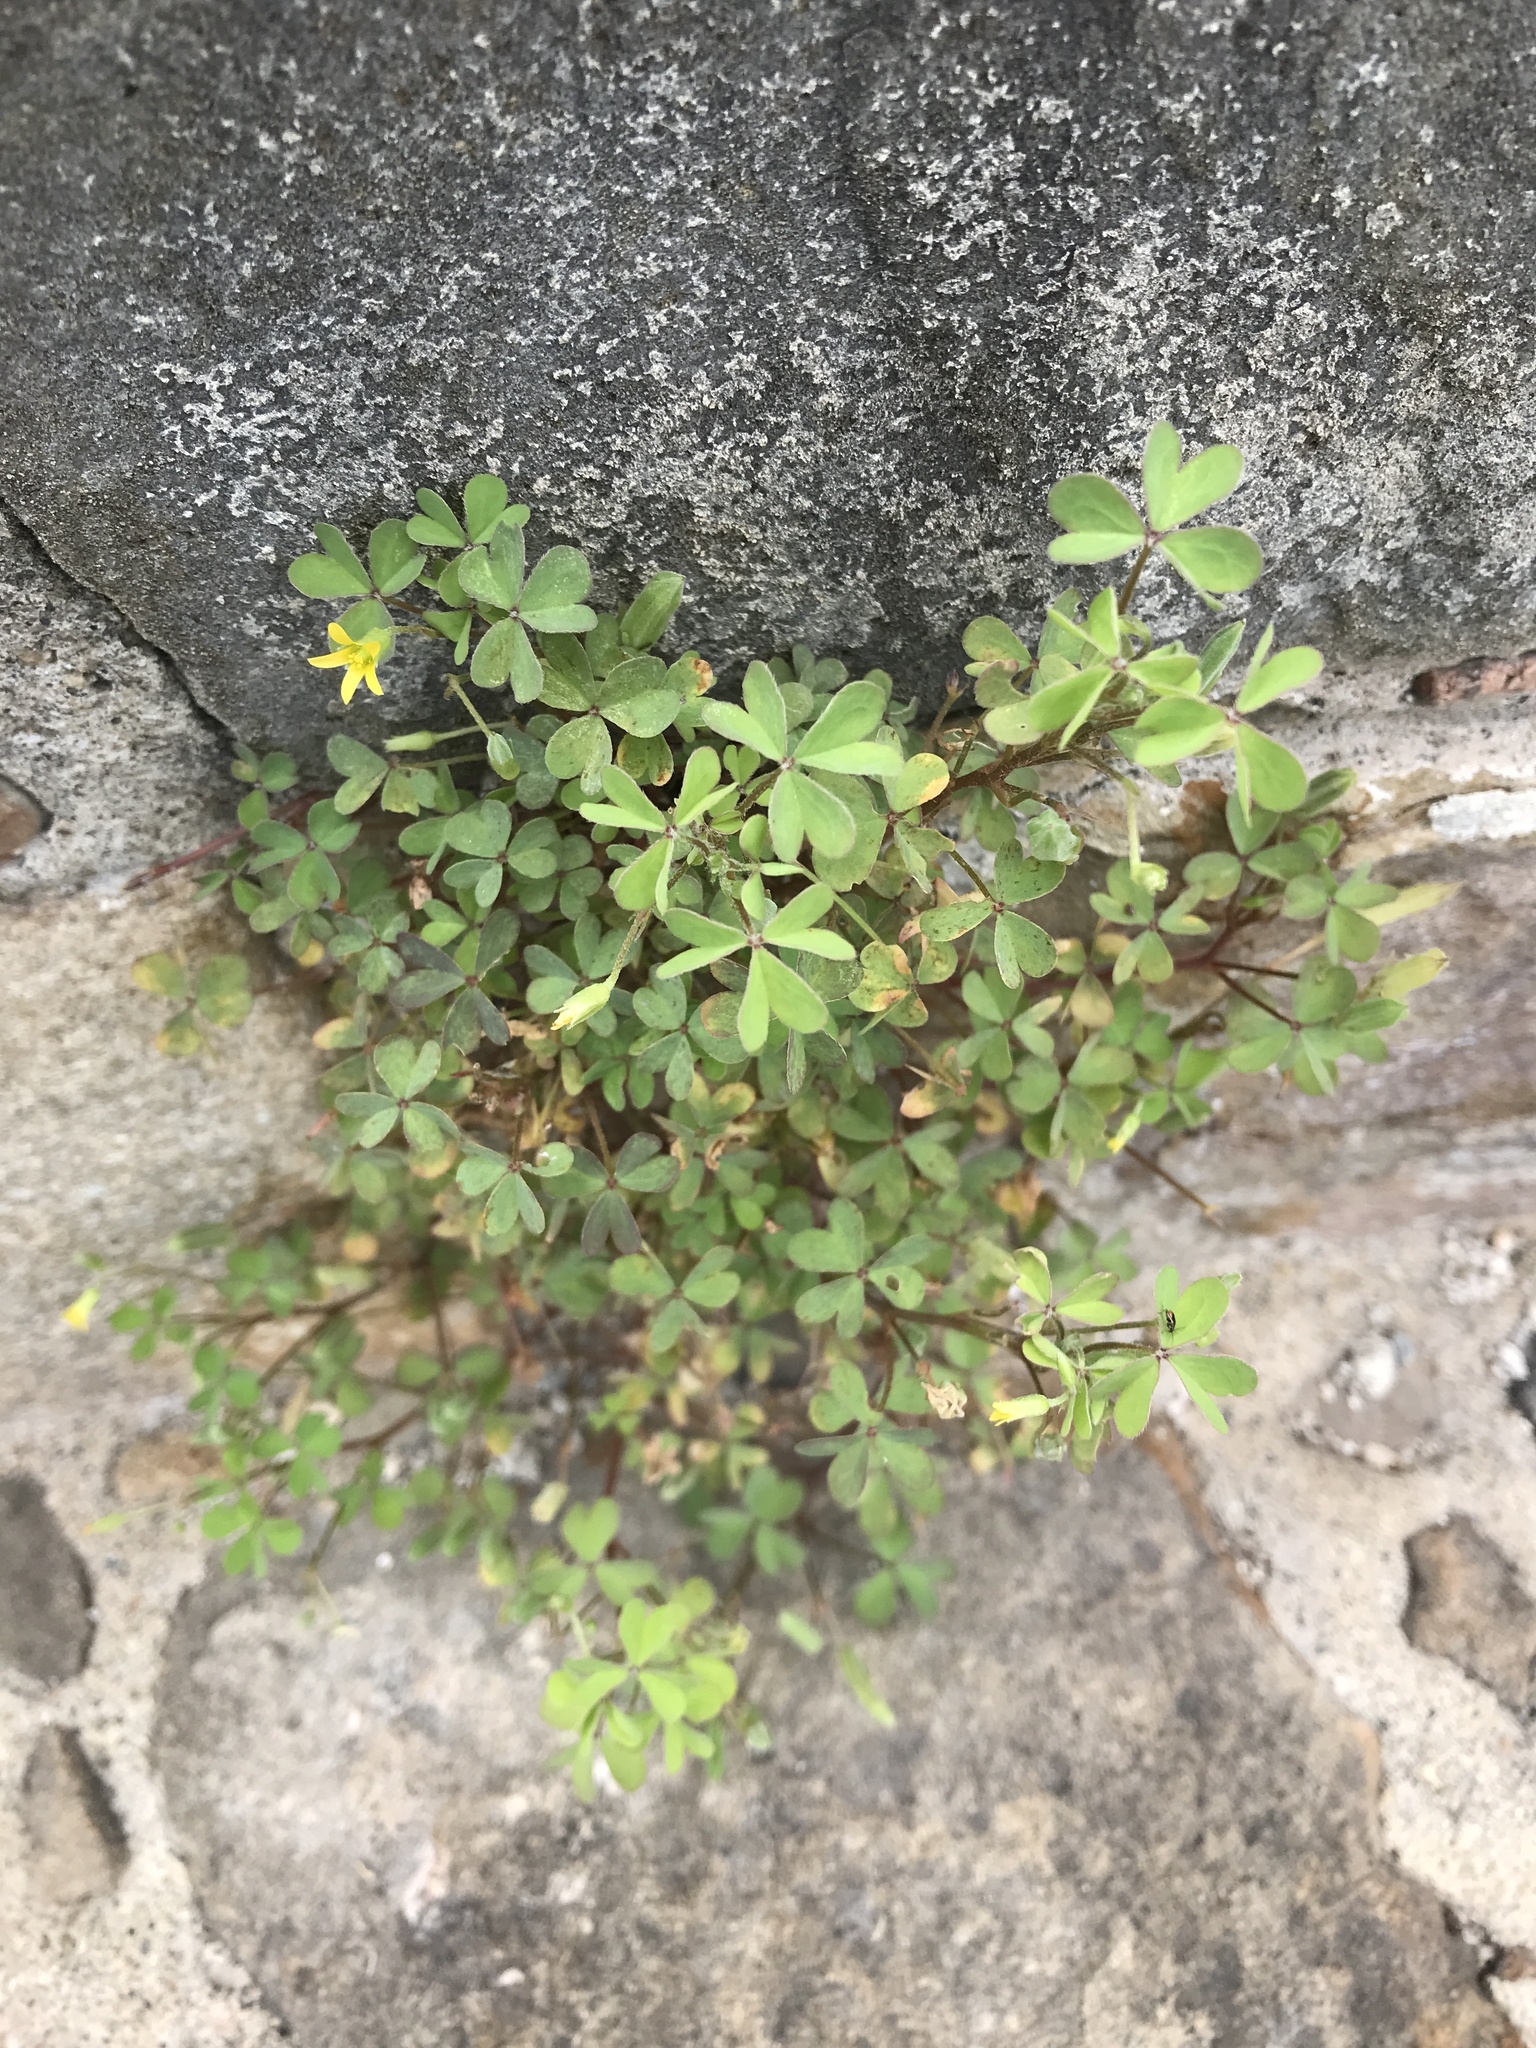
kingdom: Plantae
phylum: Tracheophyta
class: Magnoliopsida
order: Oxalidales
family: Oxalidaceae
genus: Oxalis
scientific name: Oxalis corniculata
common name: Procumbent yellow-sorrel
